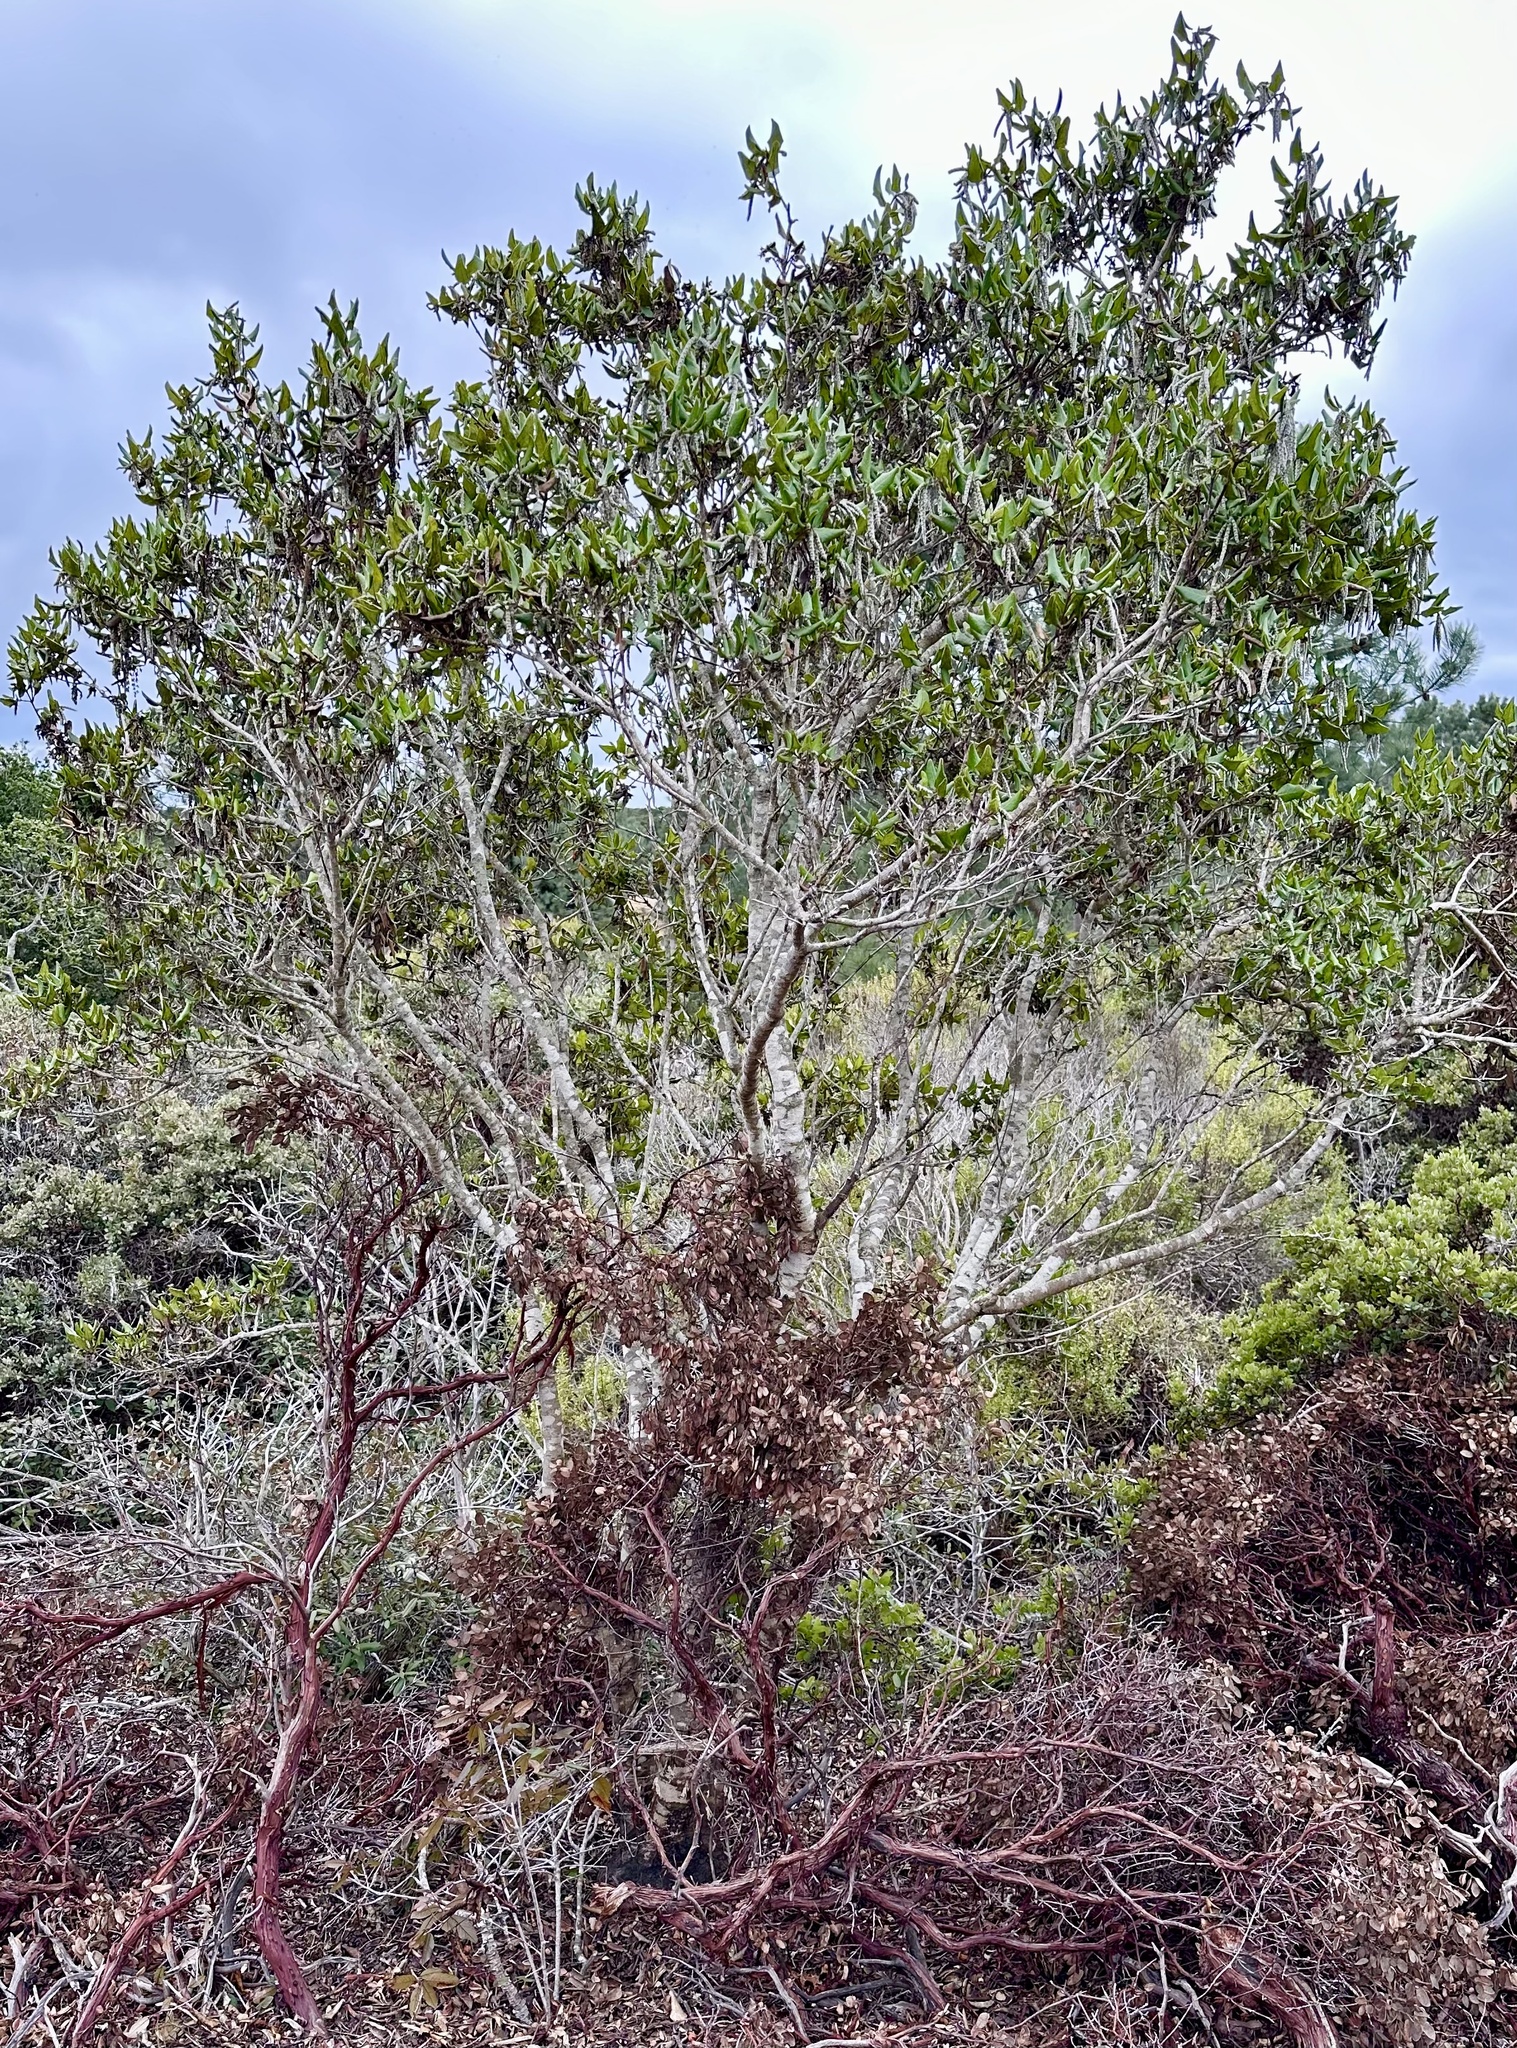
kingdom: Plantae
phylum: Tracheophyta
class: Magnoliopsida
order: Garryales
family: Garryaceae
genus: Garrya
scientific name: Garrya elliptica
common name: Silk-tassel
